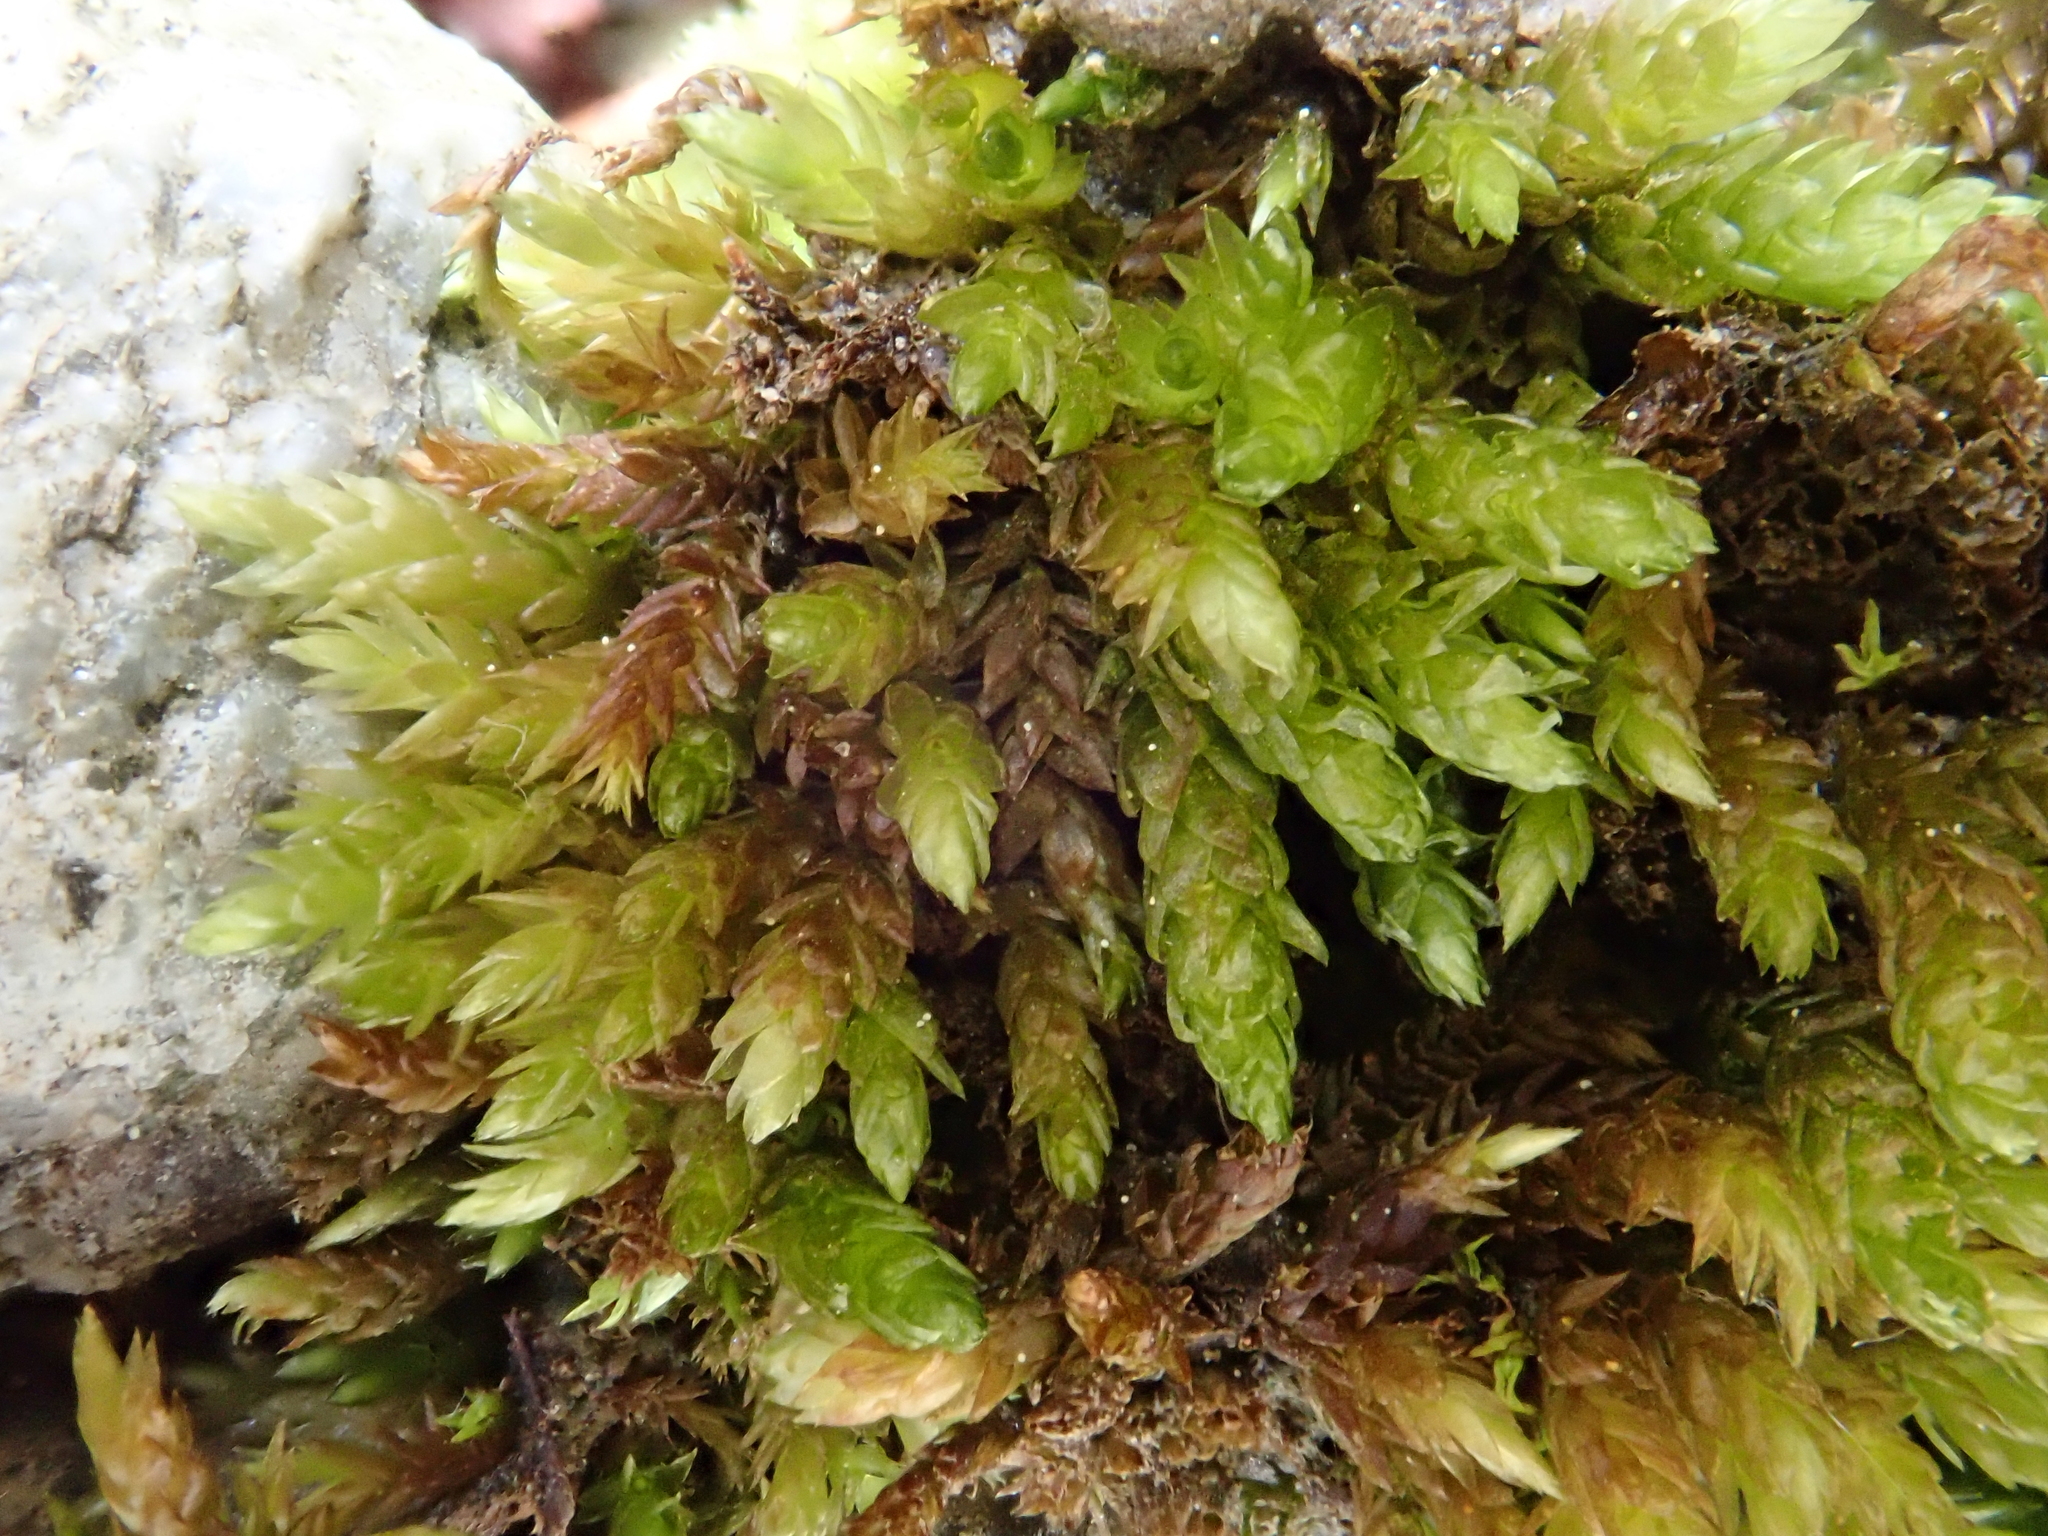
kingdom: Plantae
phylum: Bryophyta
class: Bryopsida
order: Hypnales
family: Brachytheciaceae
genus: Rhynchostegium
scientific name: Rhynchostegium murale
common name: Wall feather-moss
